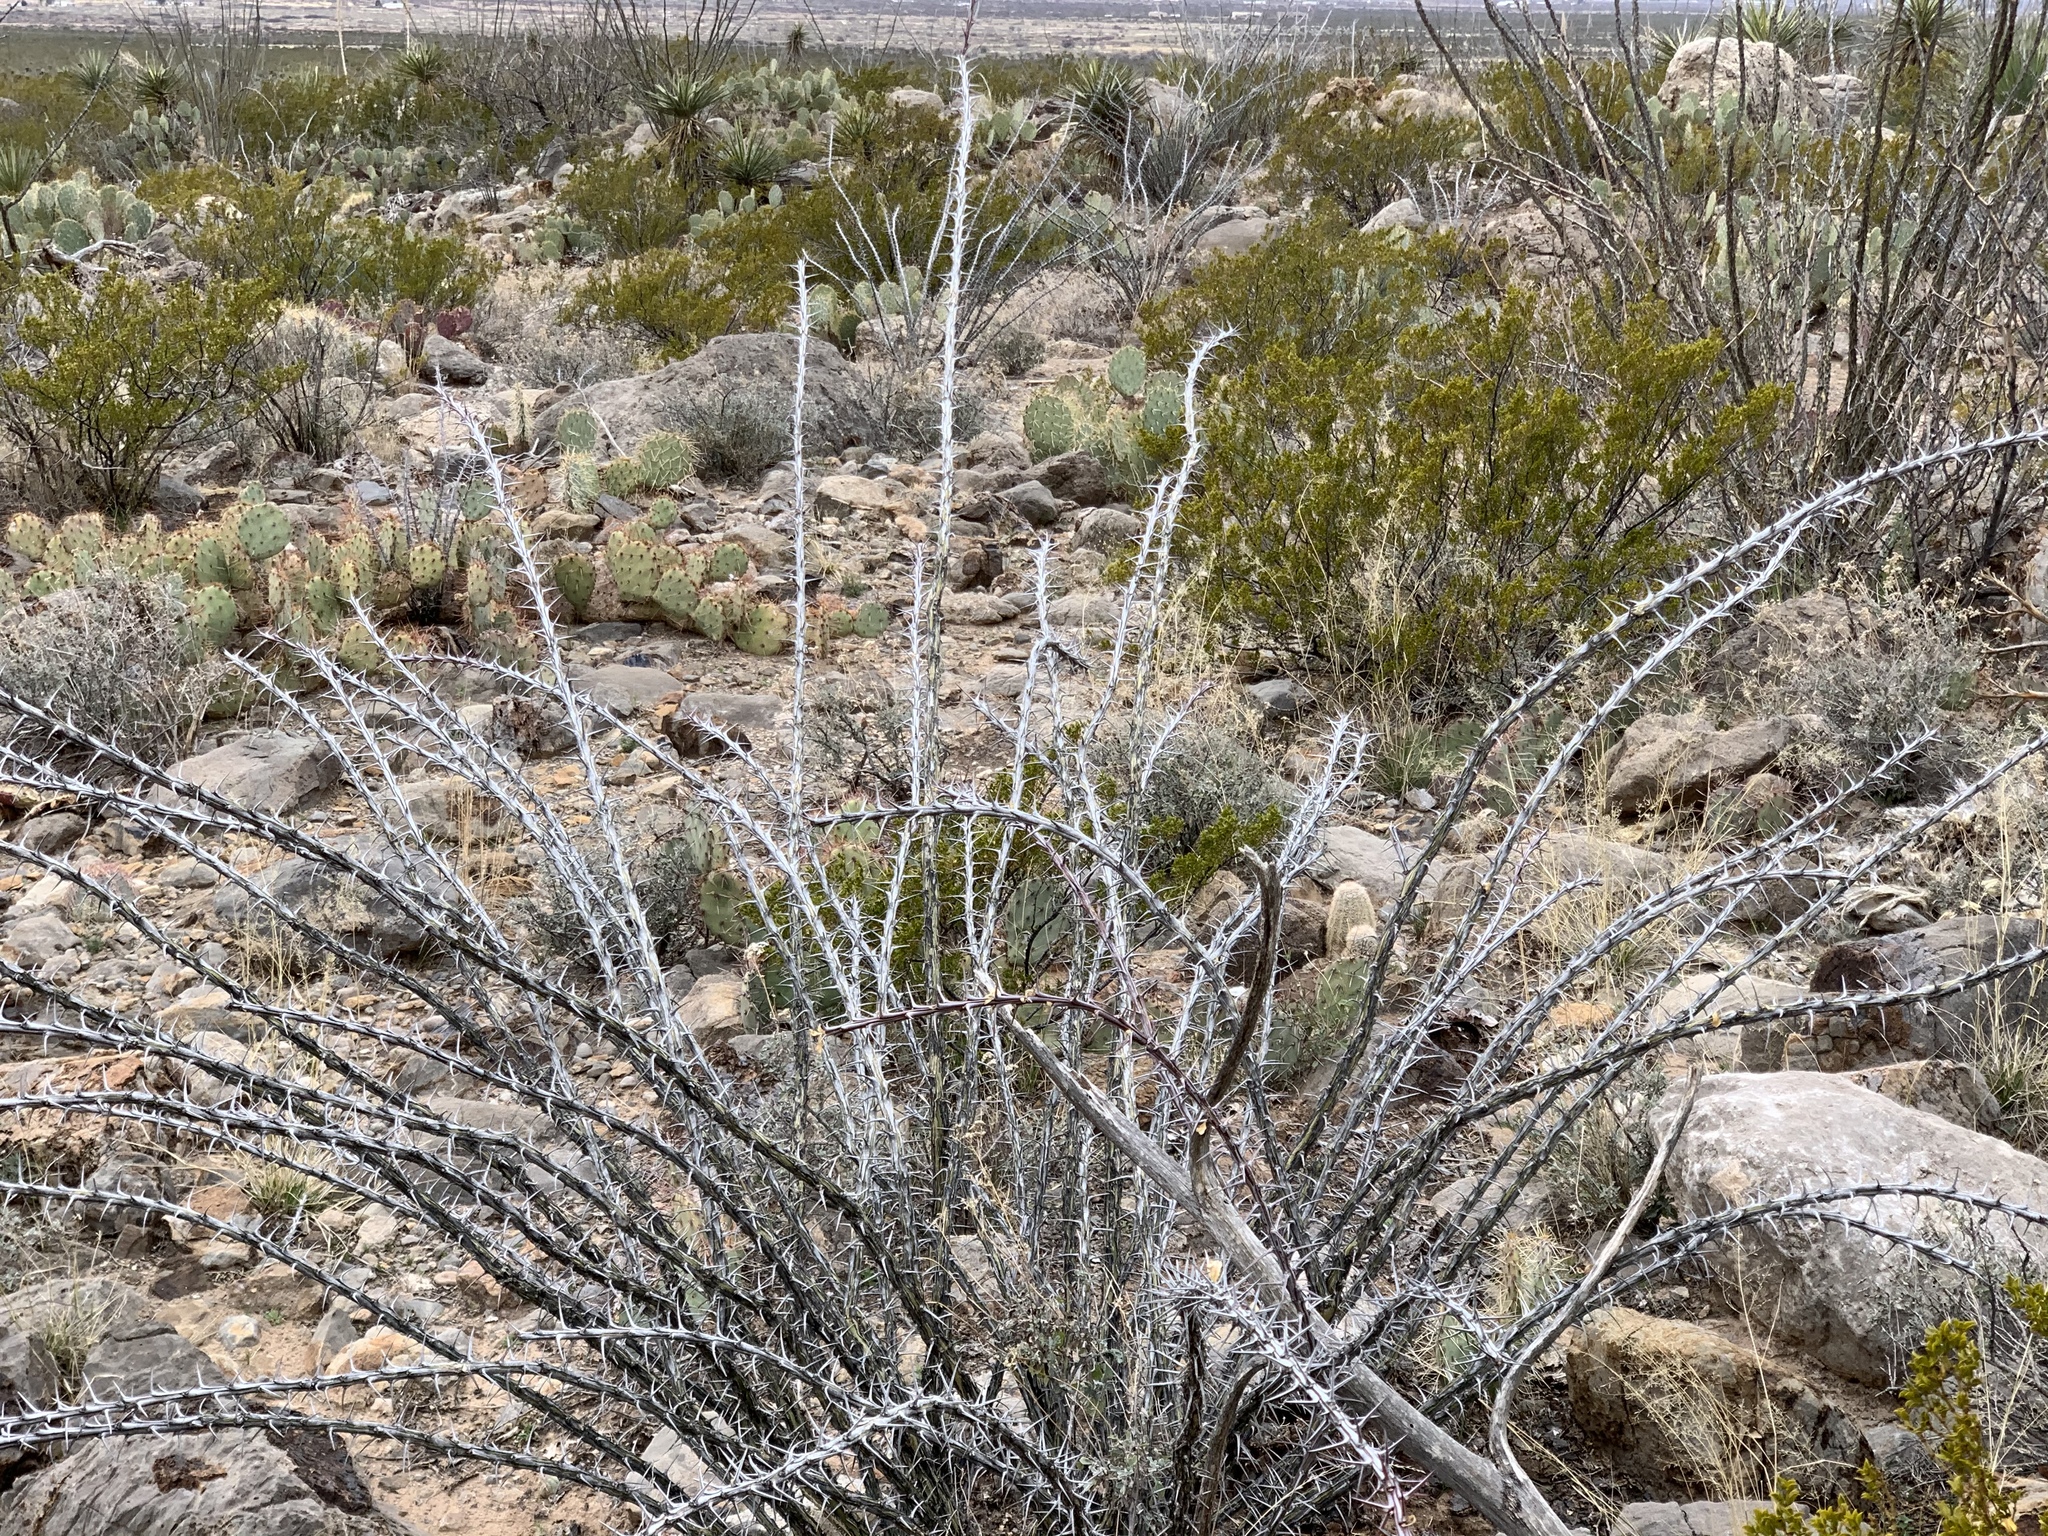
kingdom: Plantae
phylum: Tracheophyta
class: Magnoliopsida
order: Ericales
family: Fouquieriaceae
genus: Fouquieria
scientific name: Fouquieria splendens
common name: Vine-cactus
